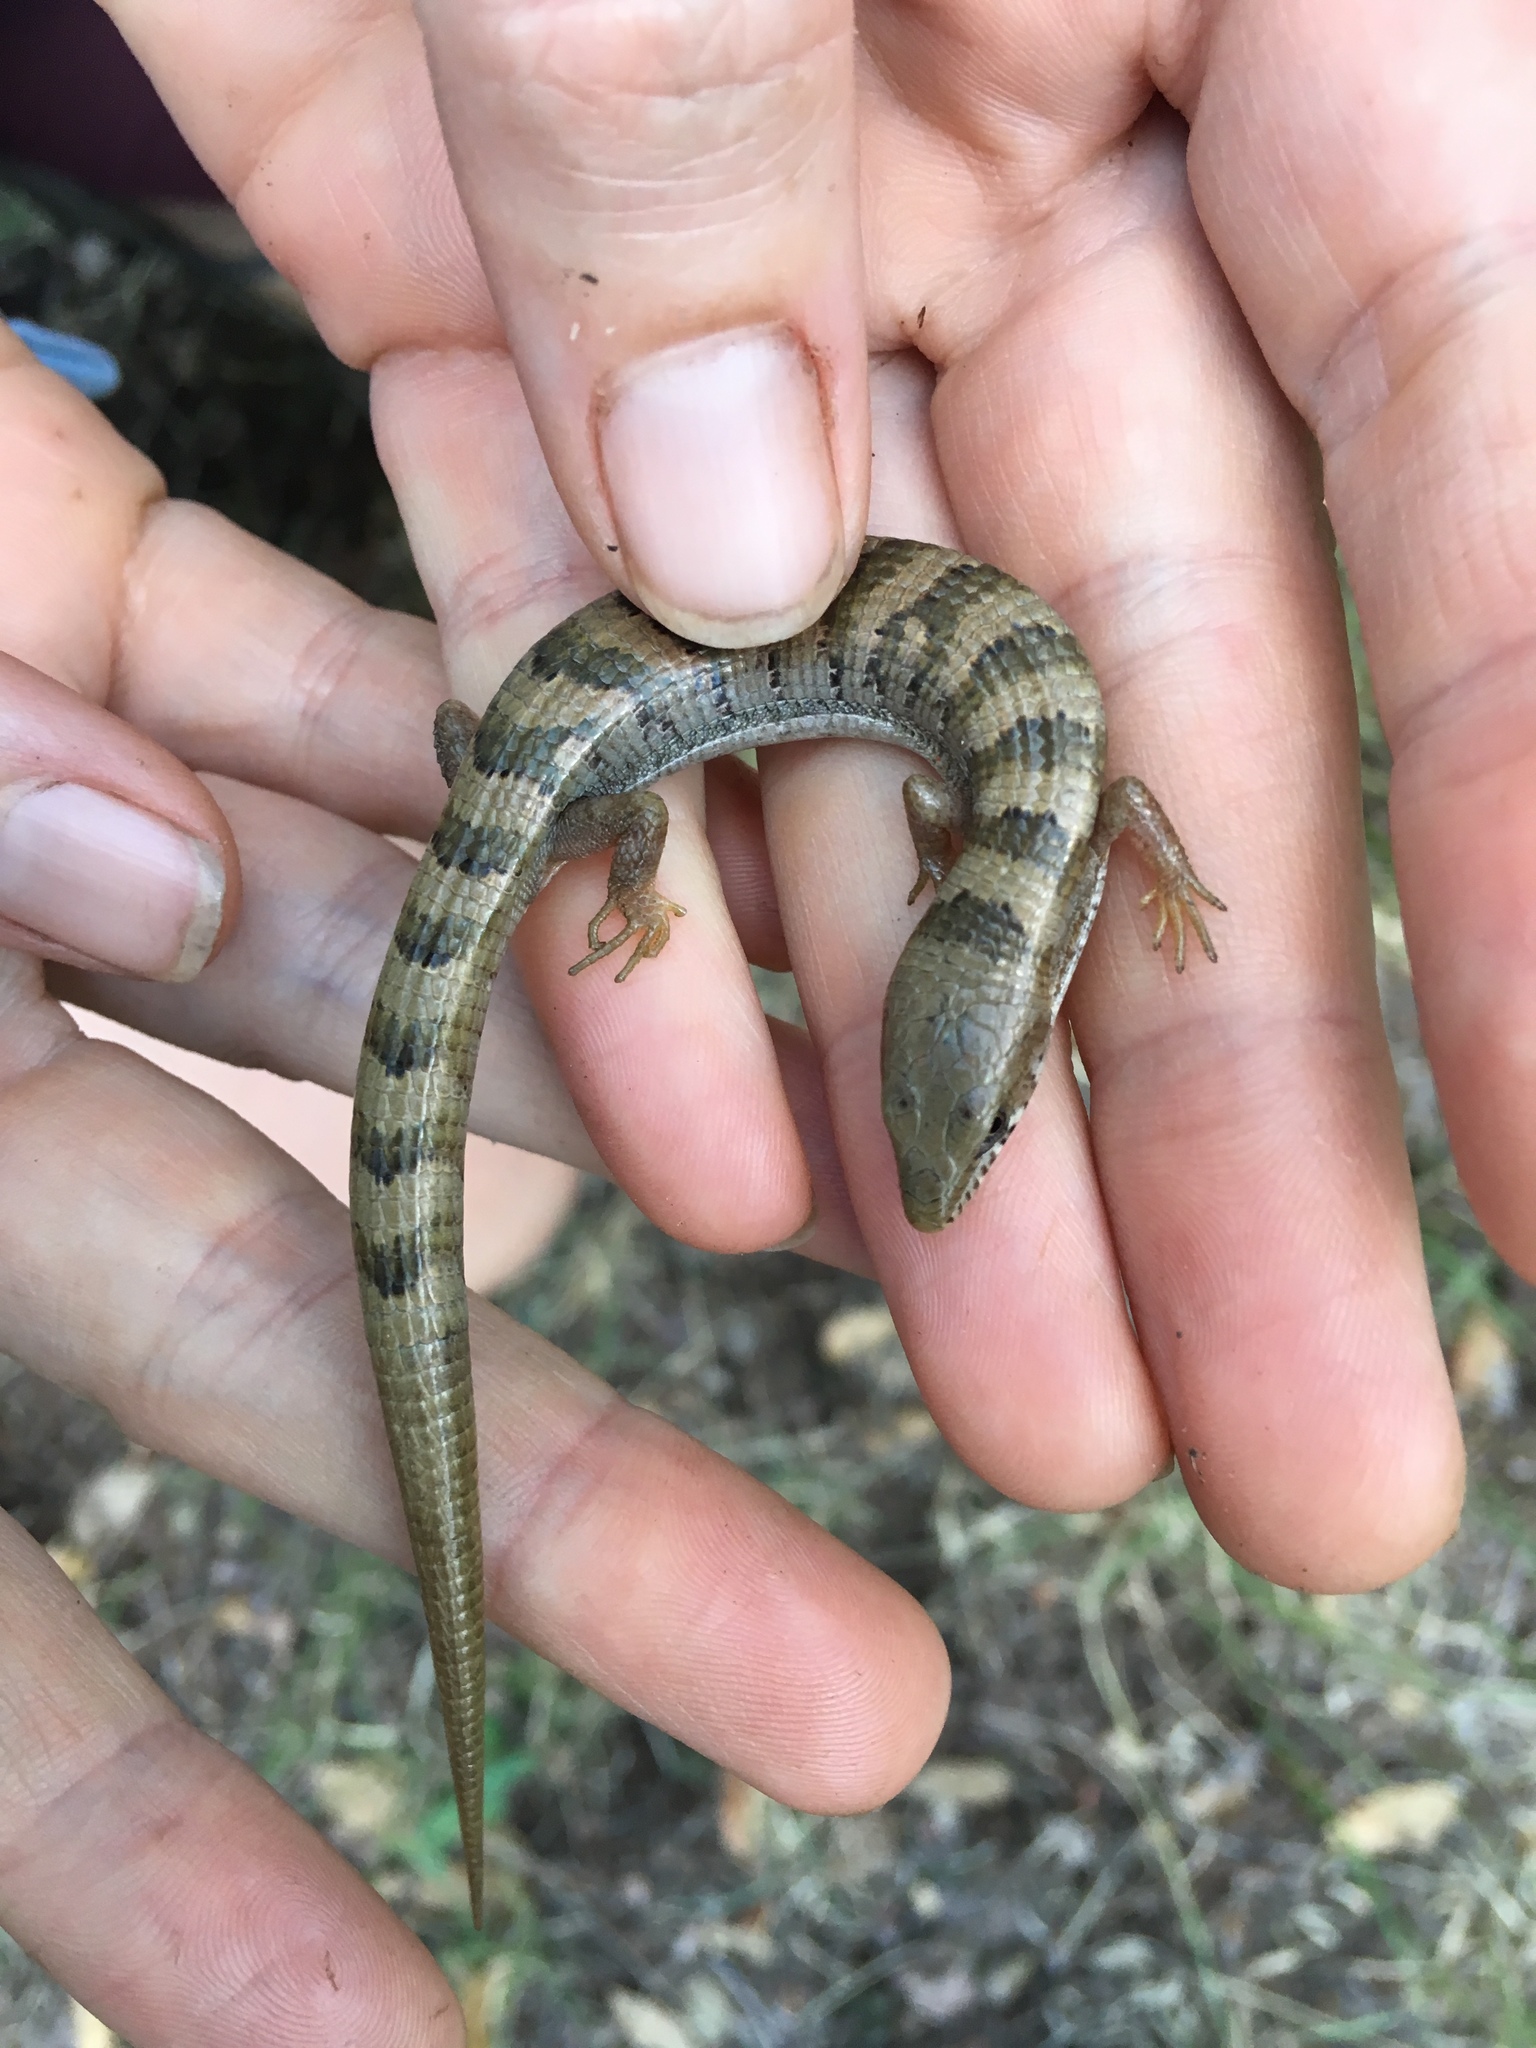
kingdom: Animalia
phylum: Chordata
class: Squamata
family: Anguidae
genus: Elgaria
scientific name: Elgaria kingii
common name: Madrean alligator lizard
